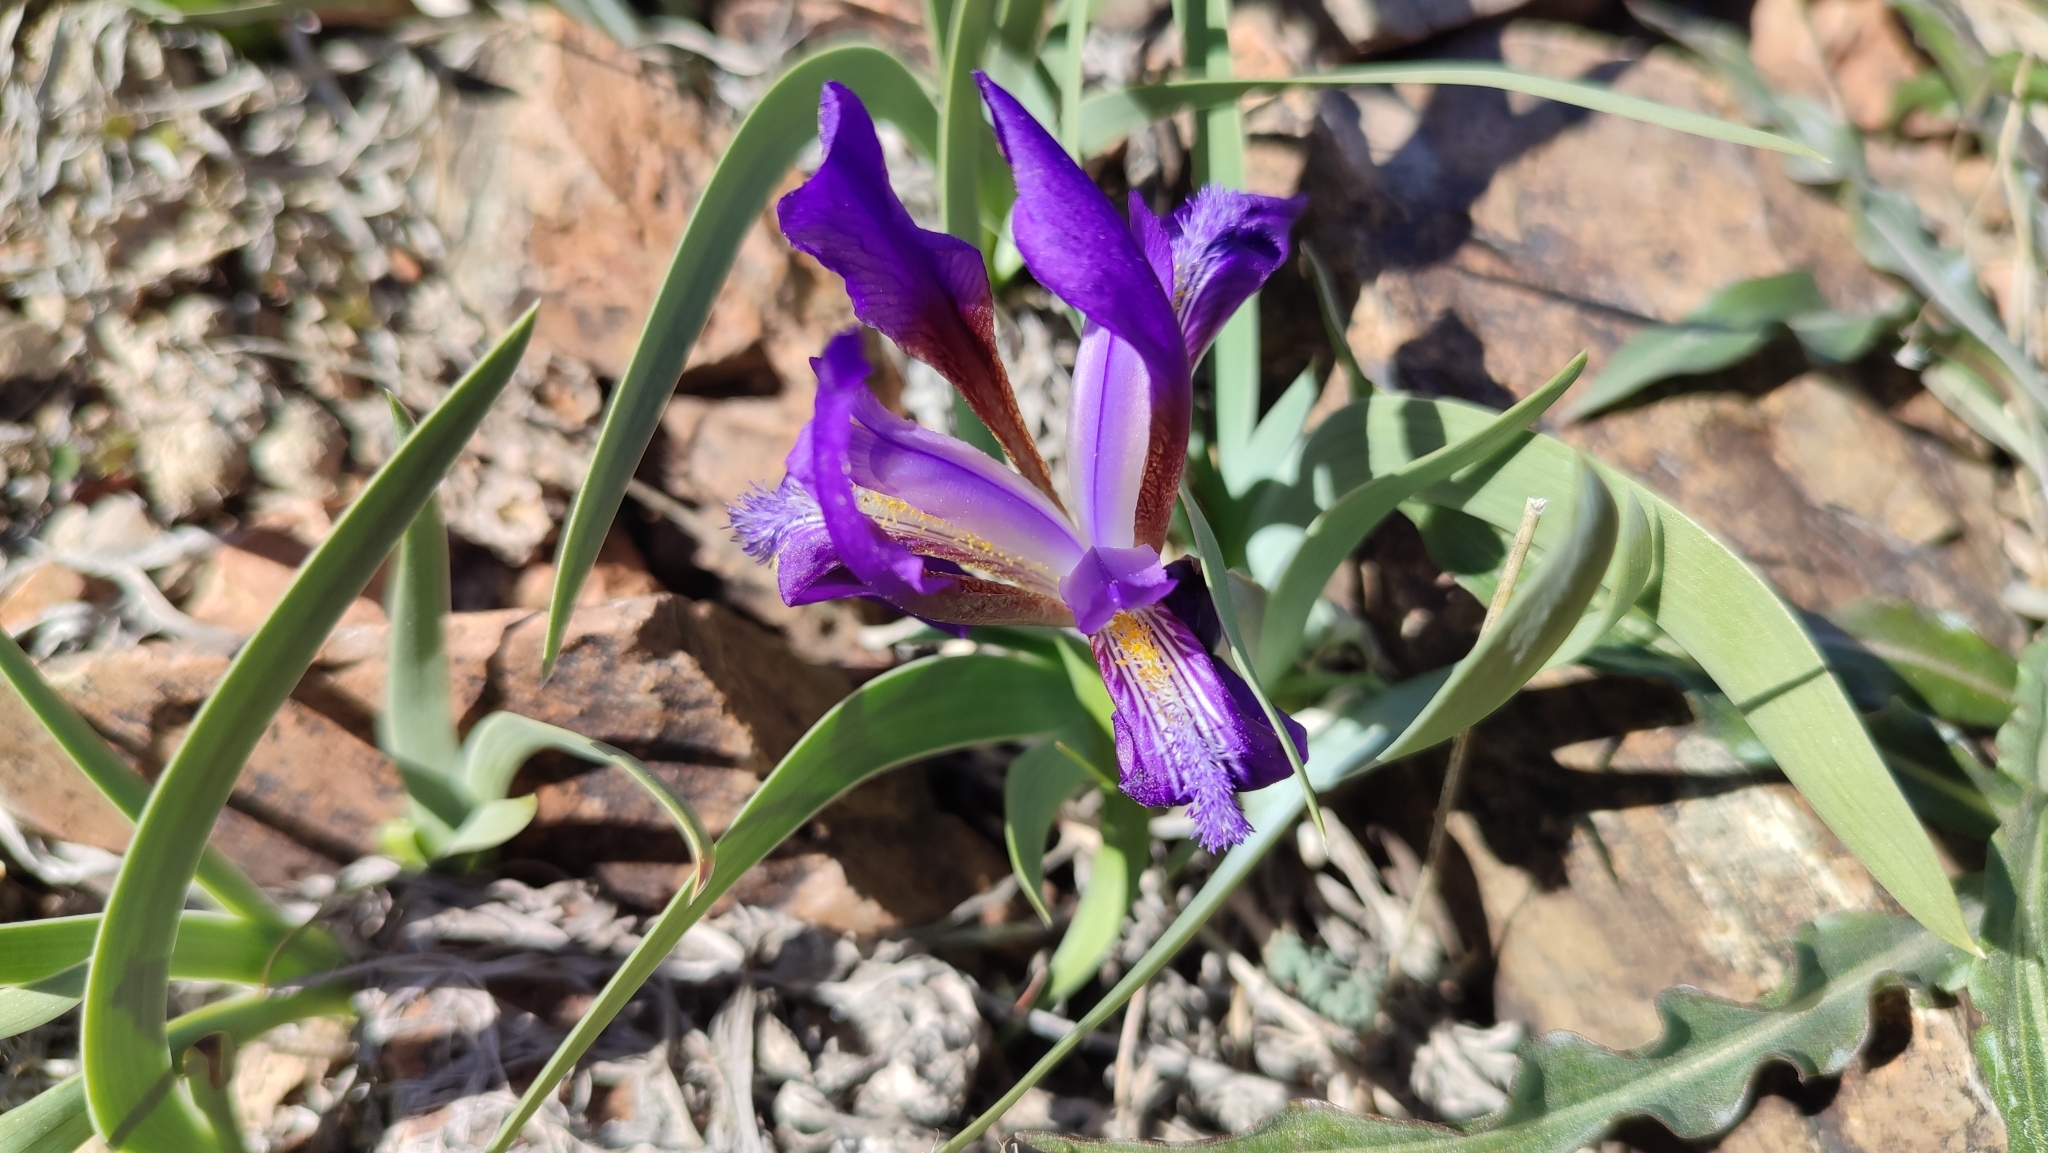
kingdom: Plantae
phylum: Tracheophyta
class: Liliopsida
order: Asparagales
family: Iridaceae
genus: Iris
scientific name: Iris glaucescens
